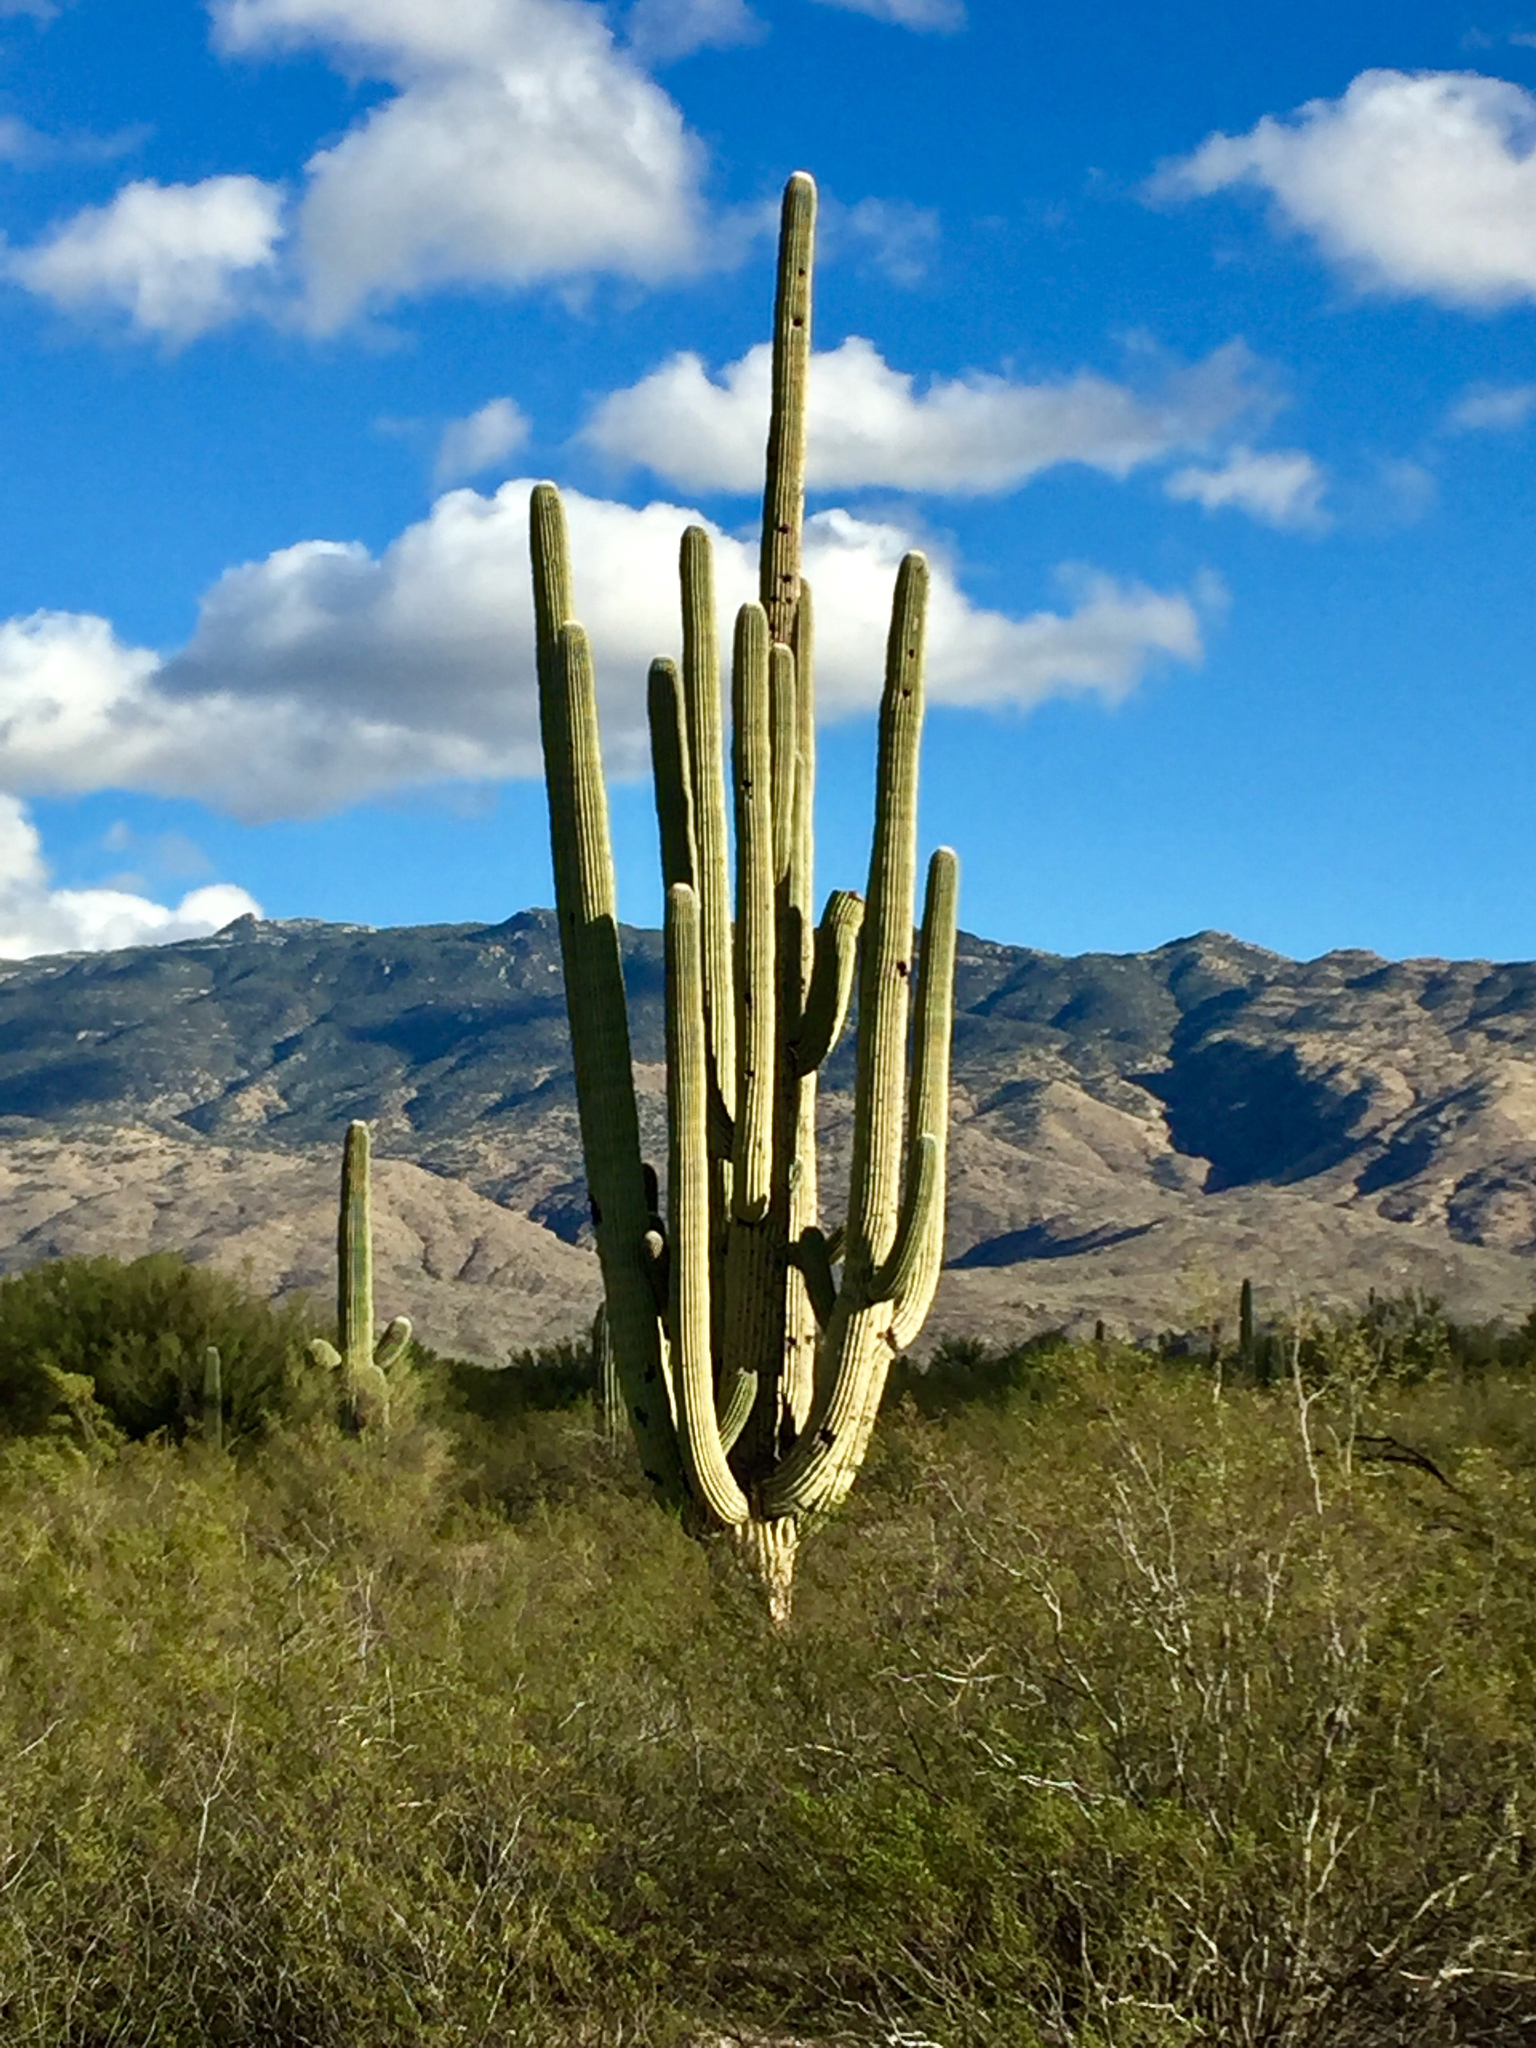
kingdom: Plantae
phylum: Tracheophyta
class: Magnoliopsida
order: Caryophyllales
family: Cactaceae
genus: Carnegiea
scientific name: Carnegiea gigantea
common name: Saguaro
